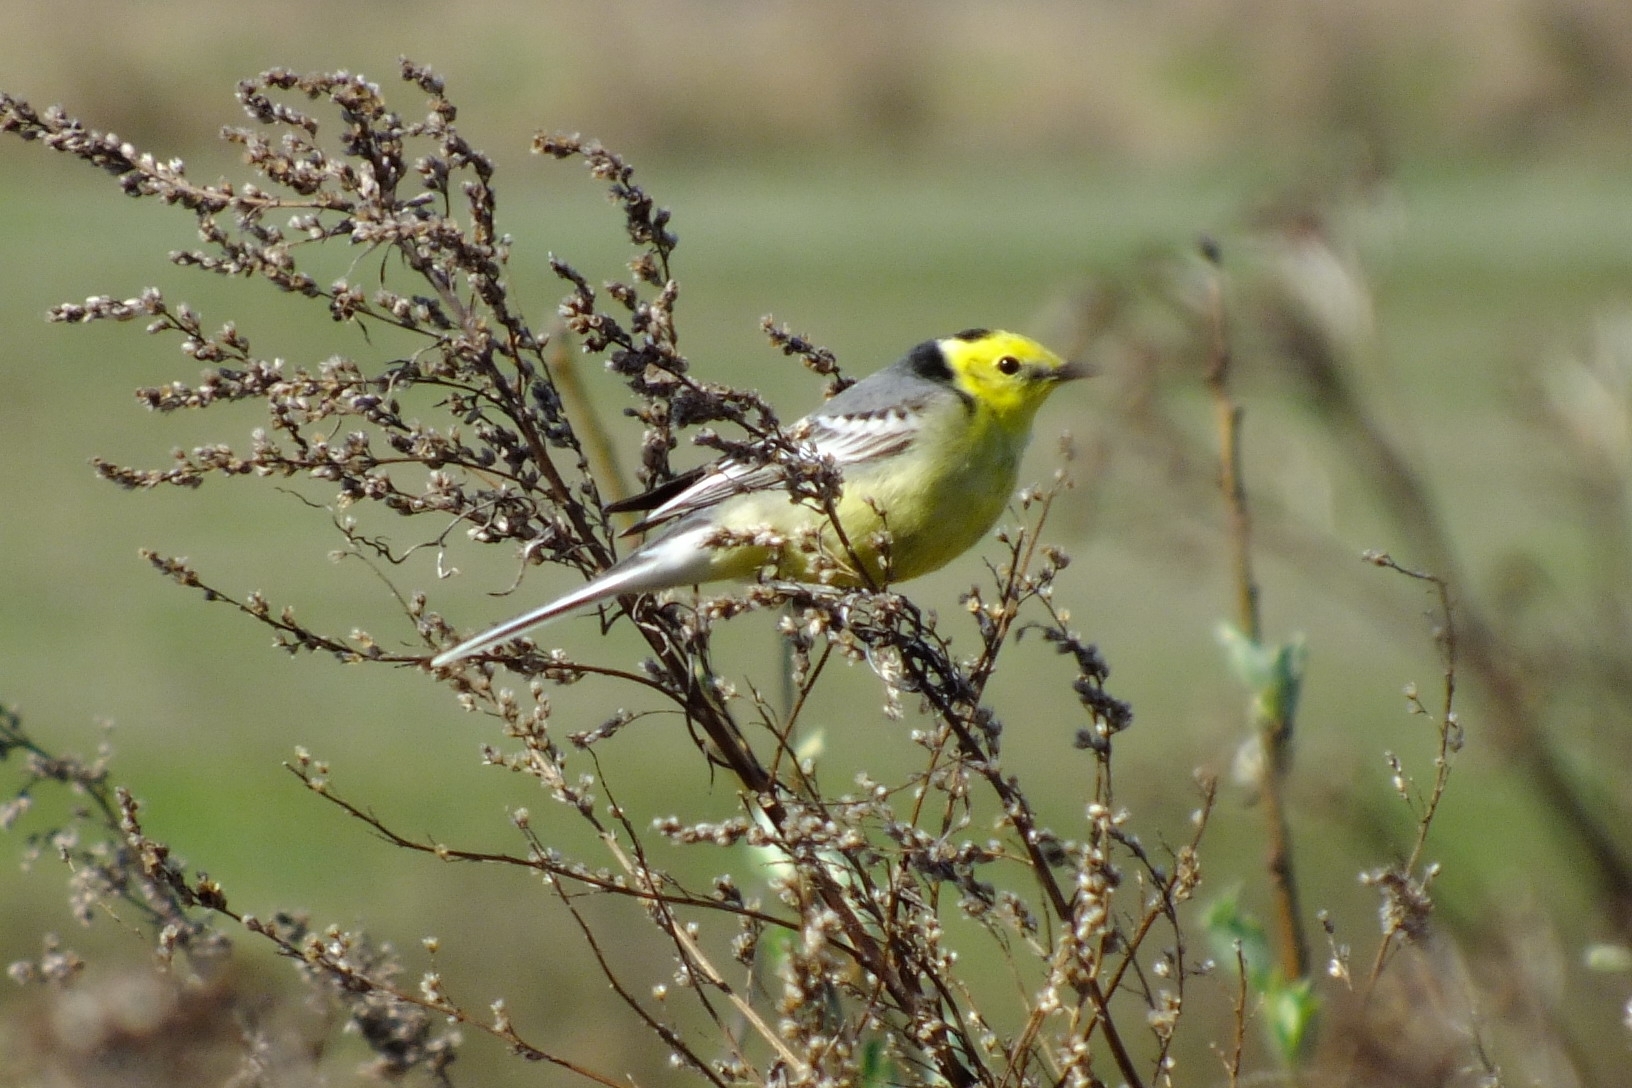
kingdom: Animalia
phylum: Chordata
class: Aves
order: Passeriformes
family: Motacillidae
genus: Motacilla
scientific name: Motacilla citreola
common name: Citrine wagtail
